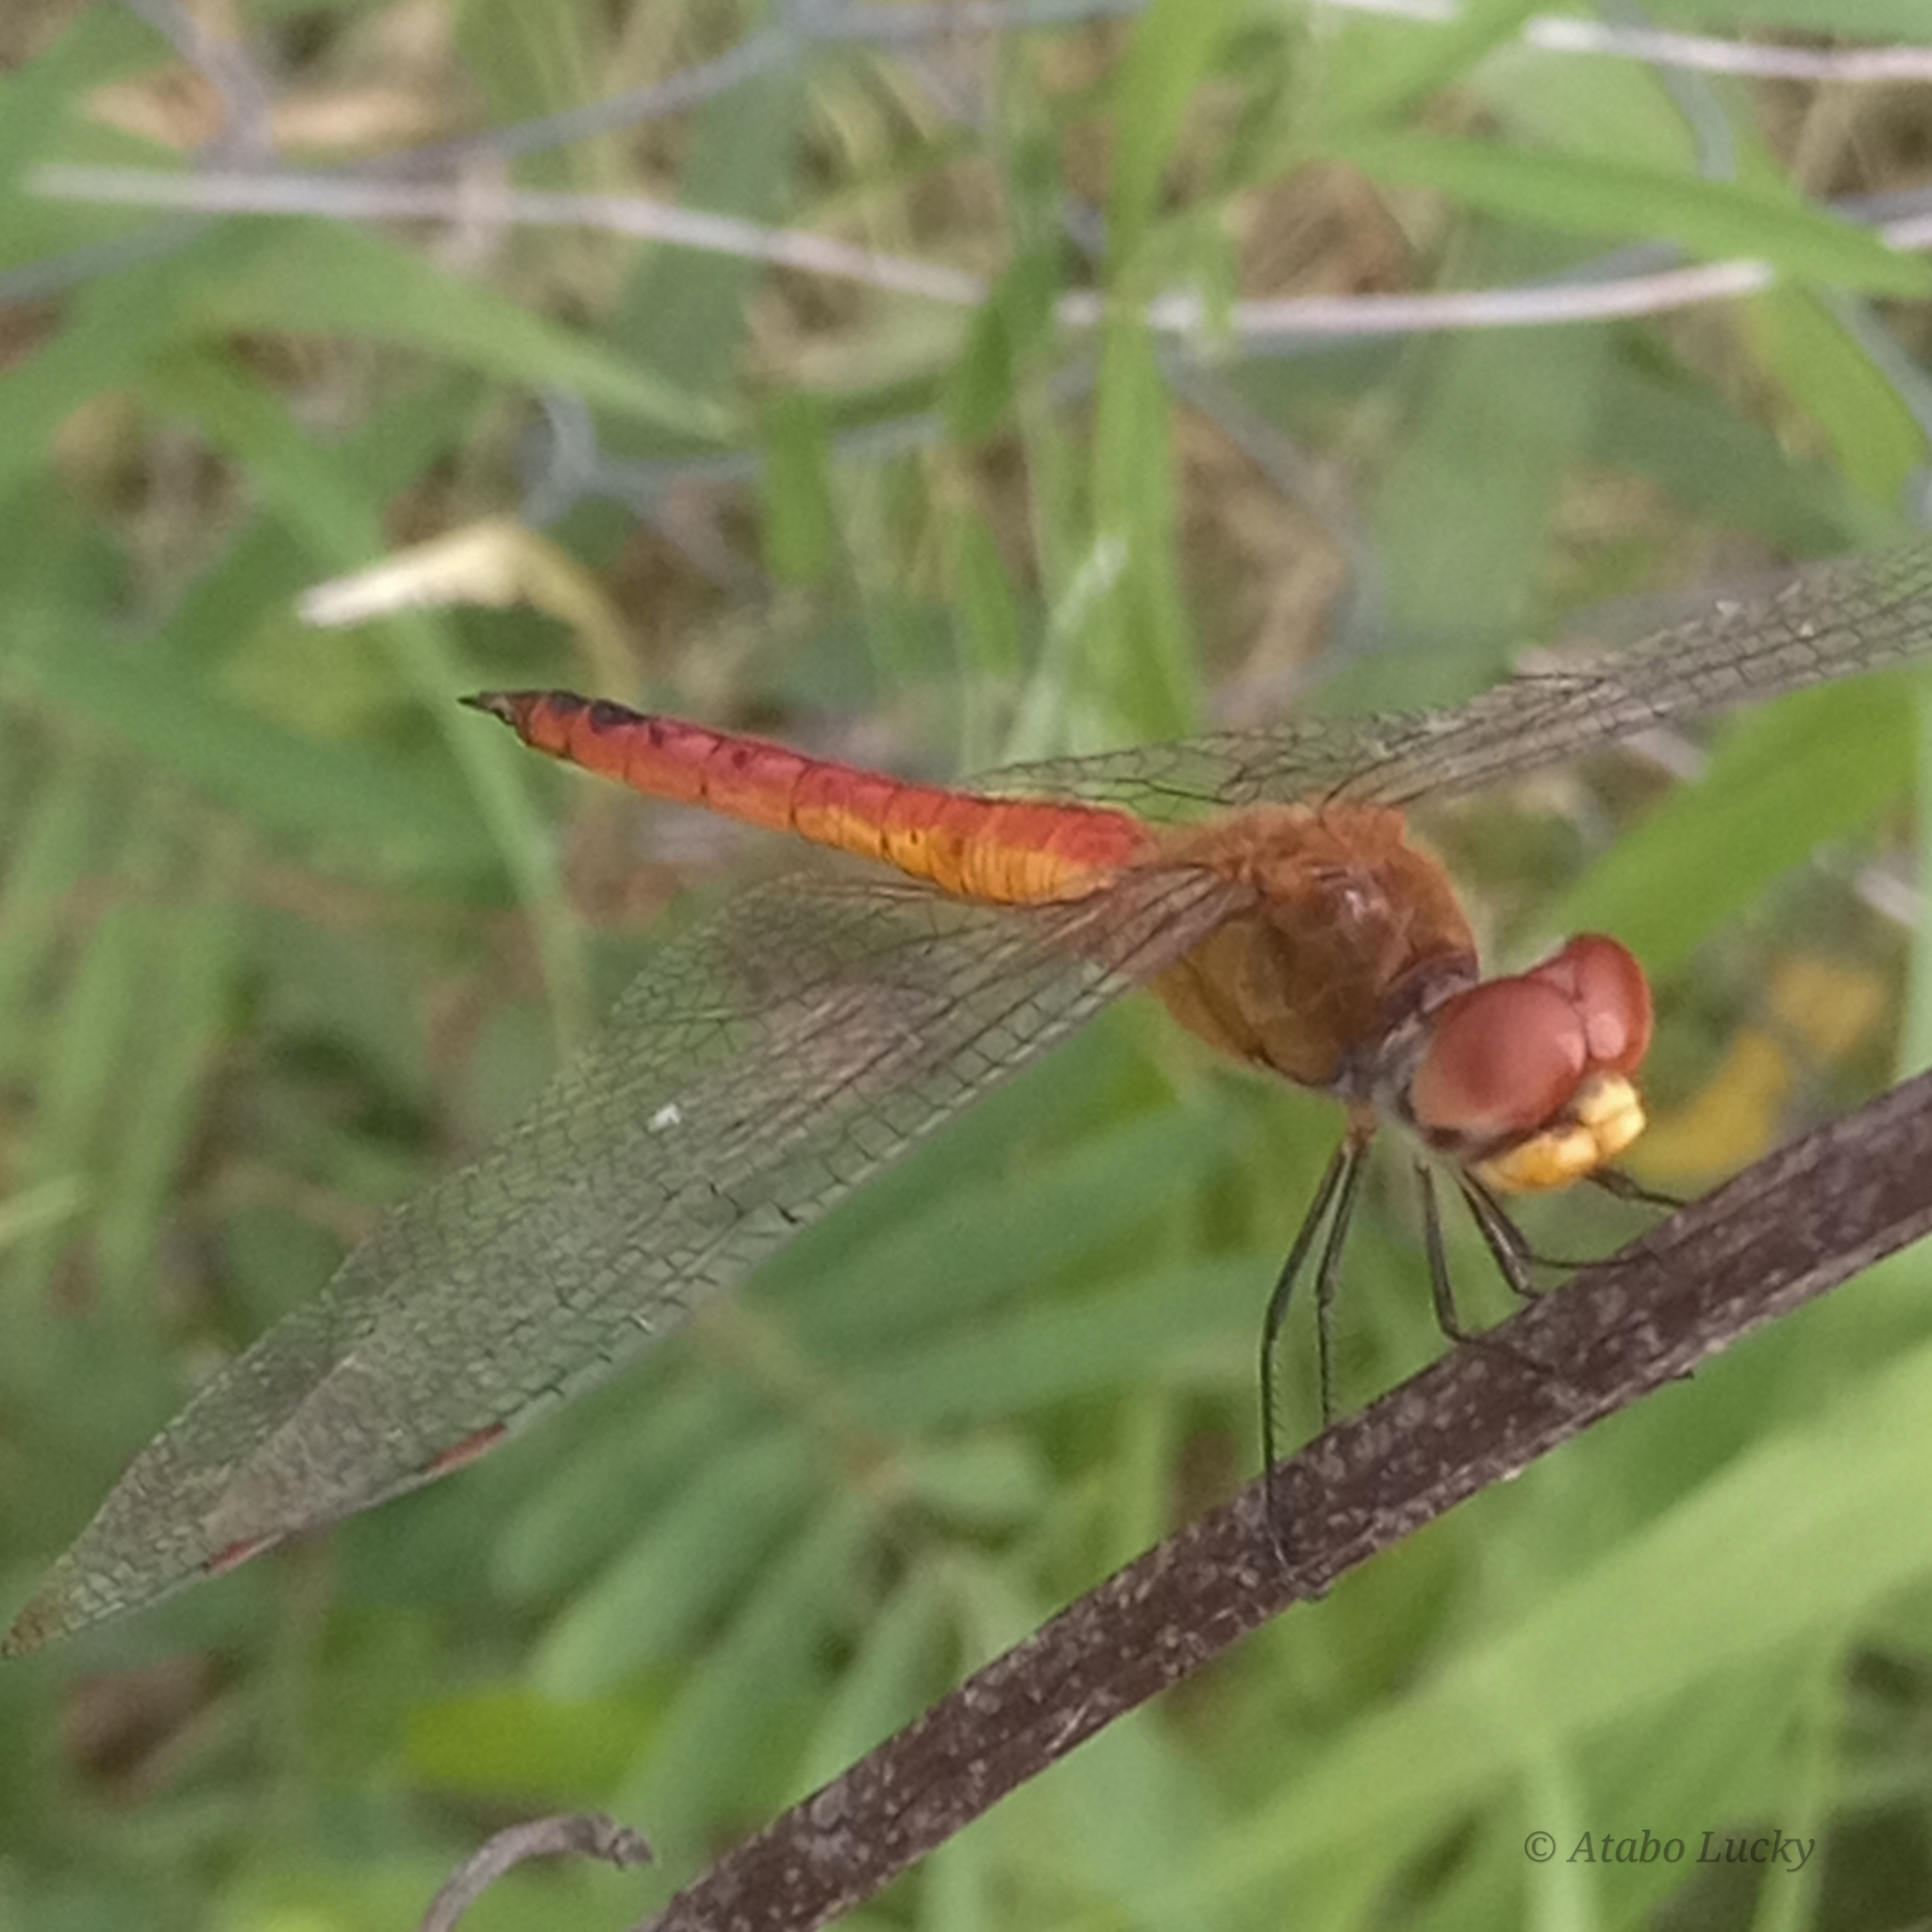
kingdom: Animalia
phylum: Arthropoda
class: Insecta
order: Odonata
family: Libellulidae
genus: Pantala
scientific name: Pantala flavescens
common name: Wandering glider
